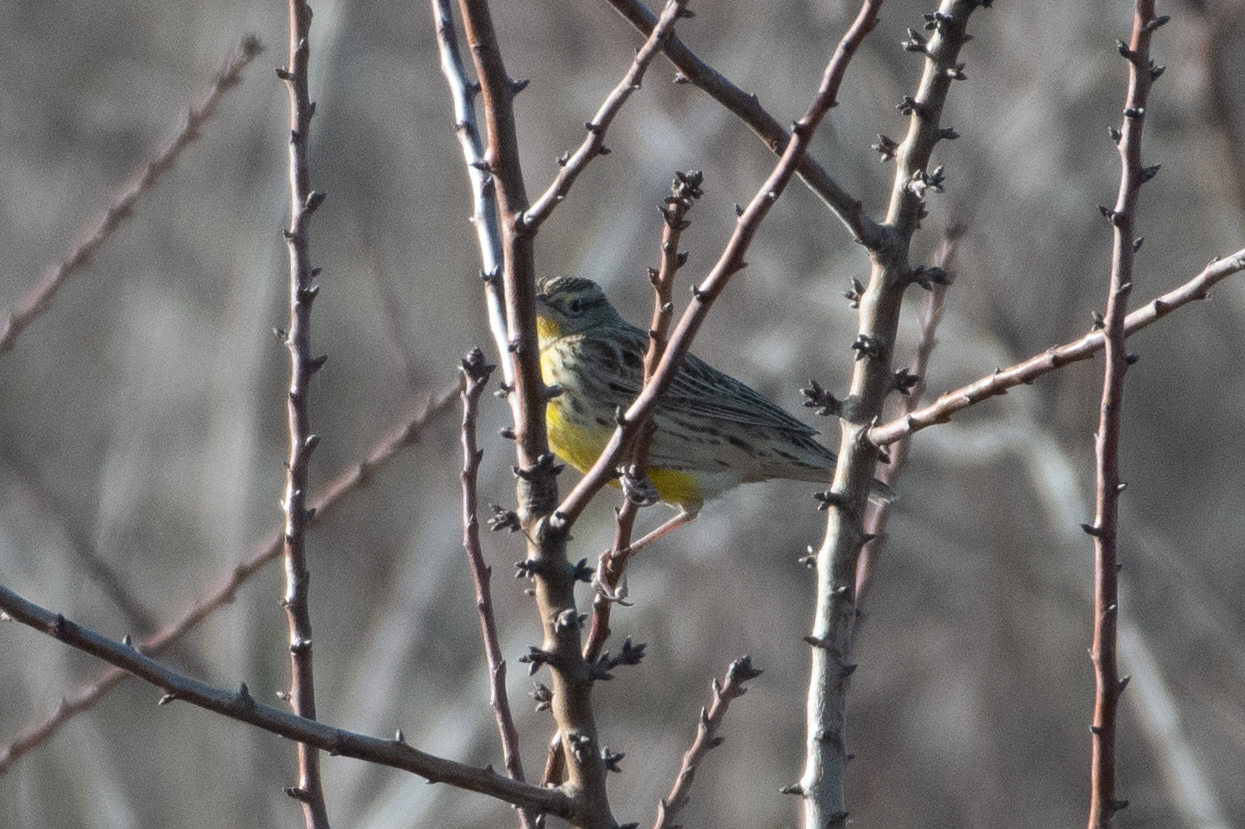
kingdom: Animalia
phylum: Chordata
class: Aves
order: Passeriformes
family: Icteridae
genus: Sturnella
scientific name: Sturnella neglecta
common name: Western meadowlark
